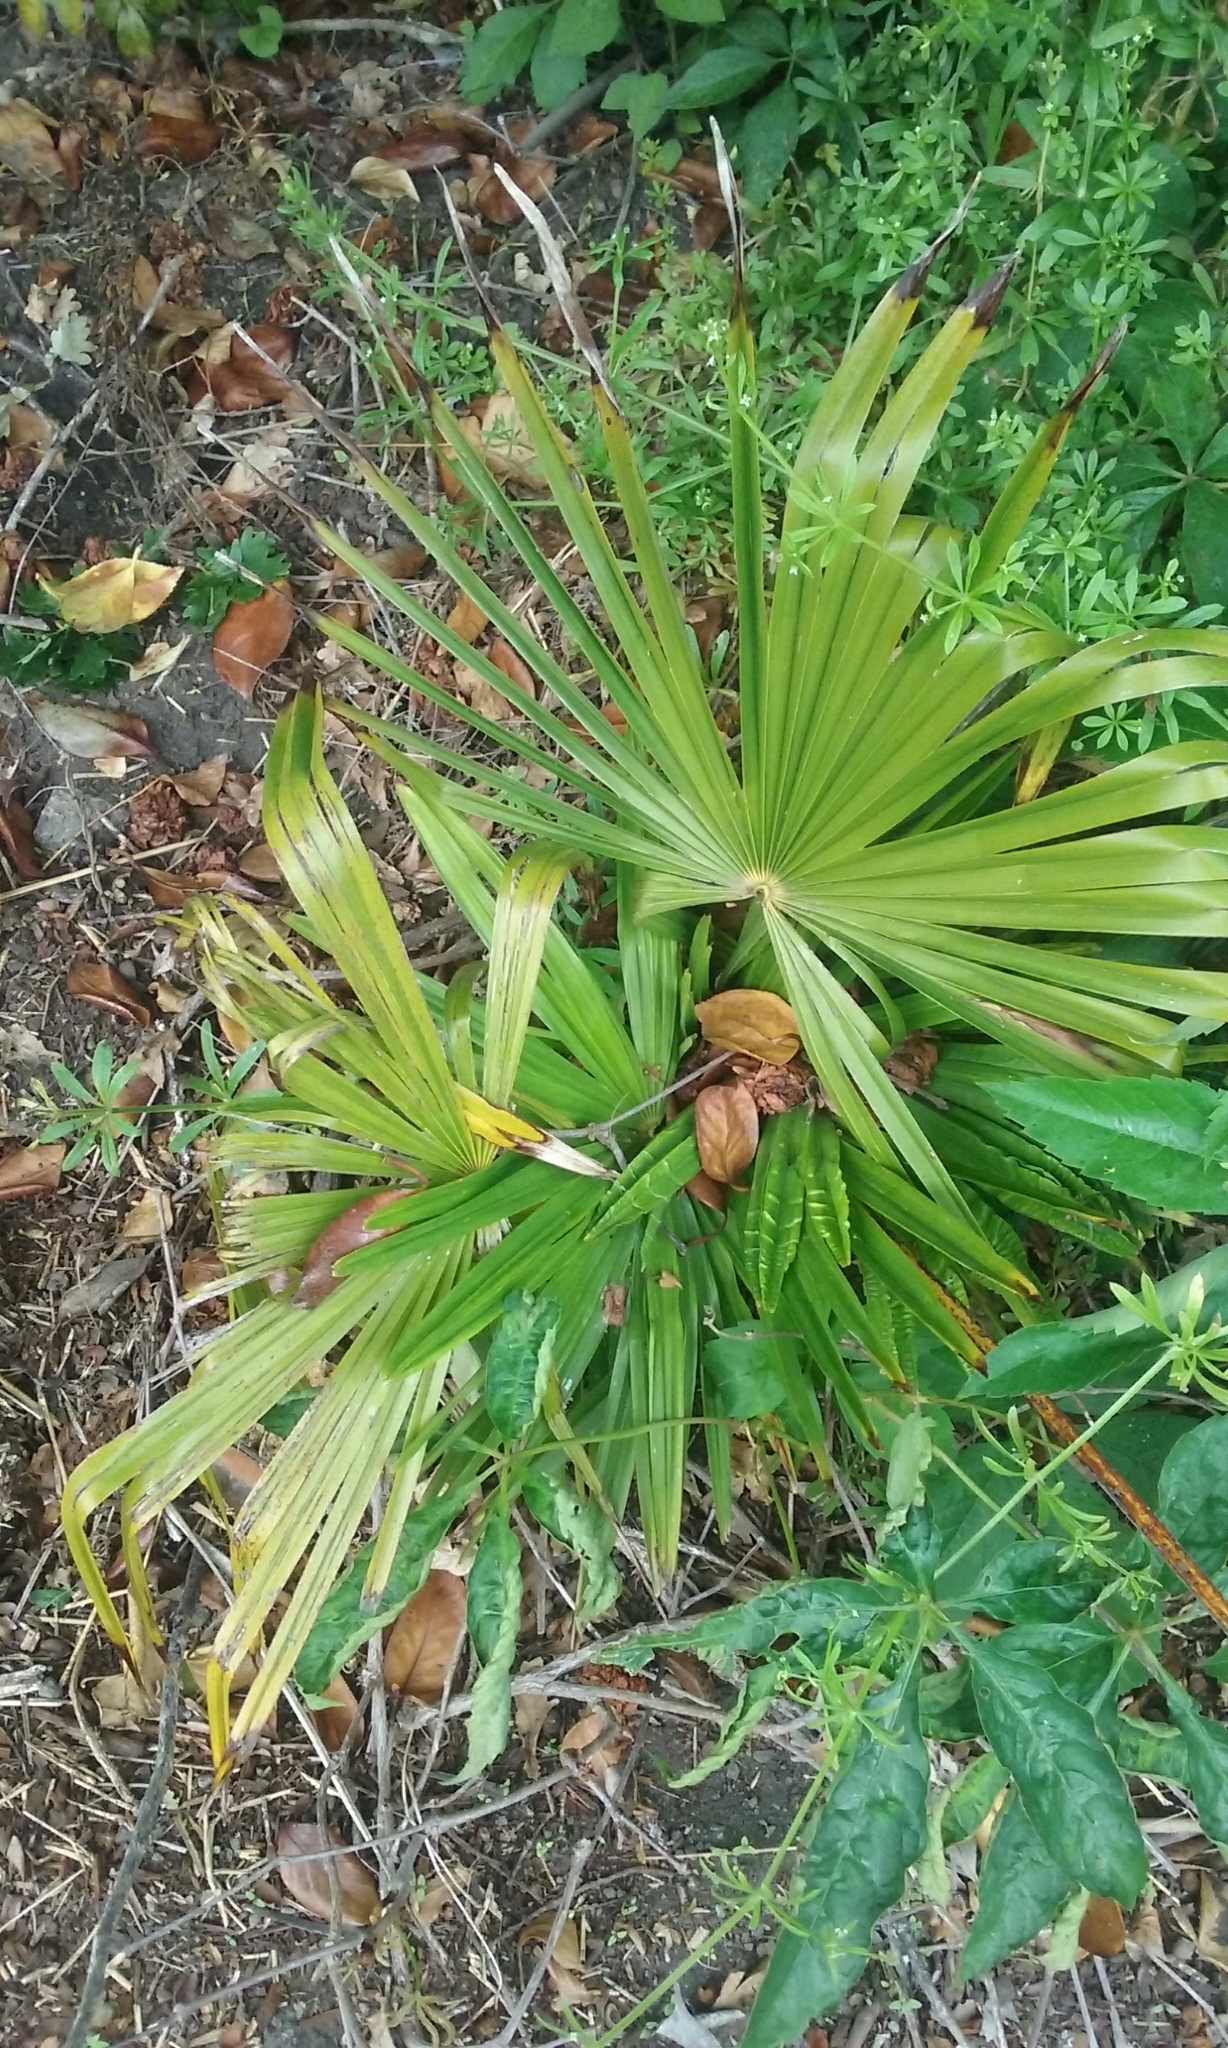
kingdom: Plantae
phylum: Tracheophyta
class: Liliopsida
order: Arecales
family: Arecaceae
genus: Trachycarpus
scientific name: Trachycarpus fortunei
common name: Chusan palm
